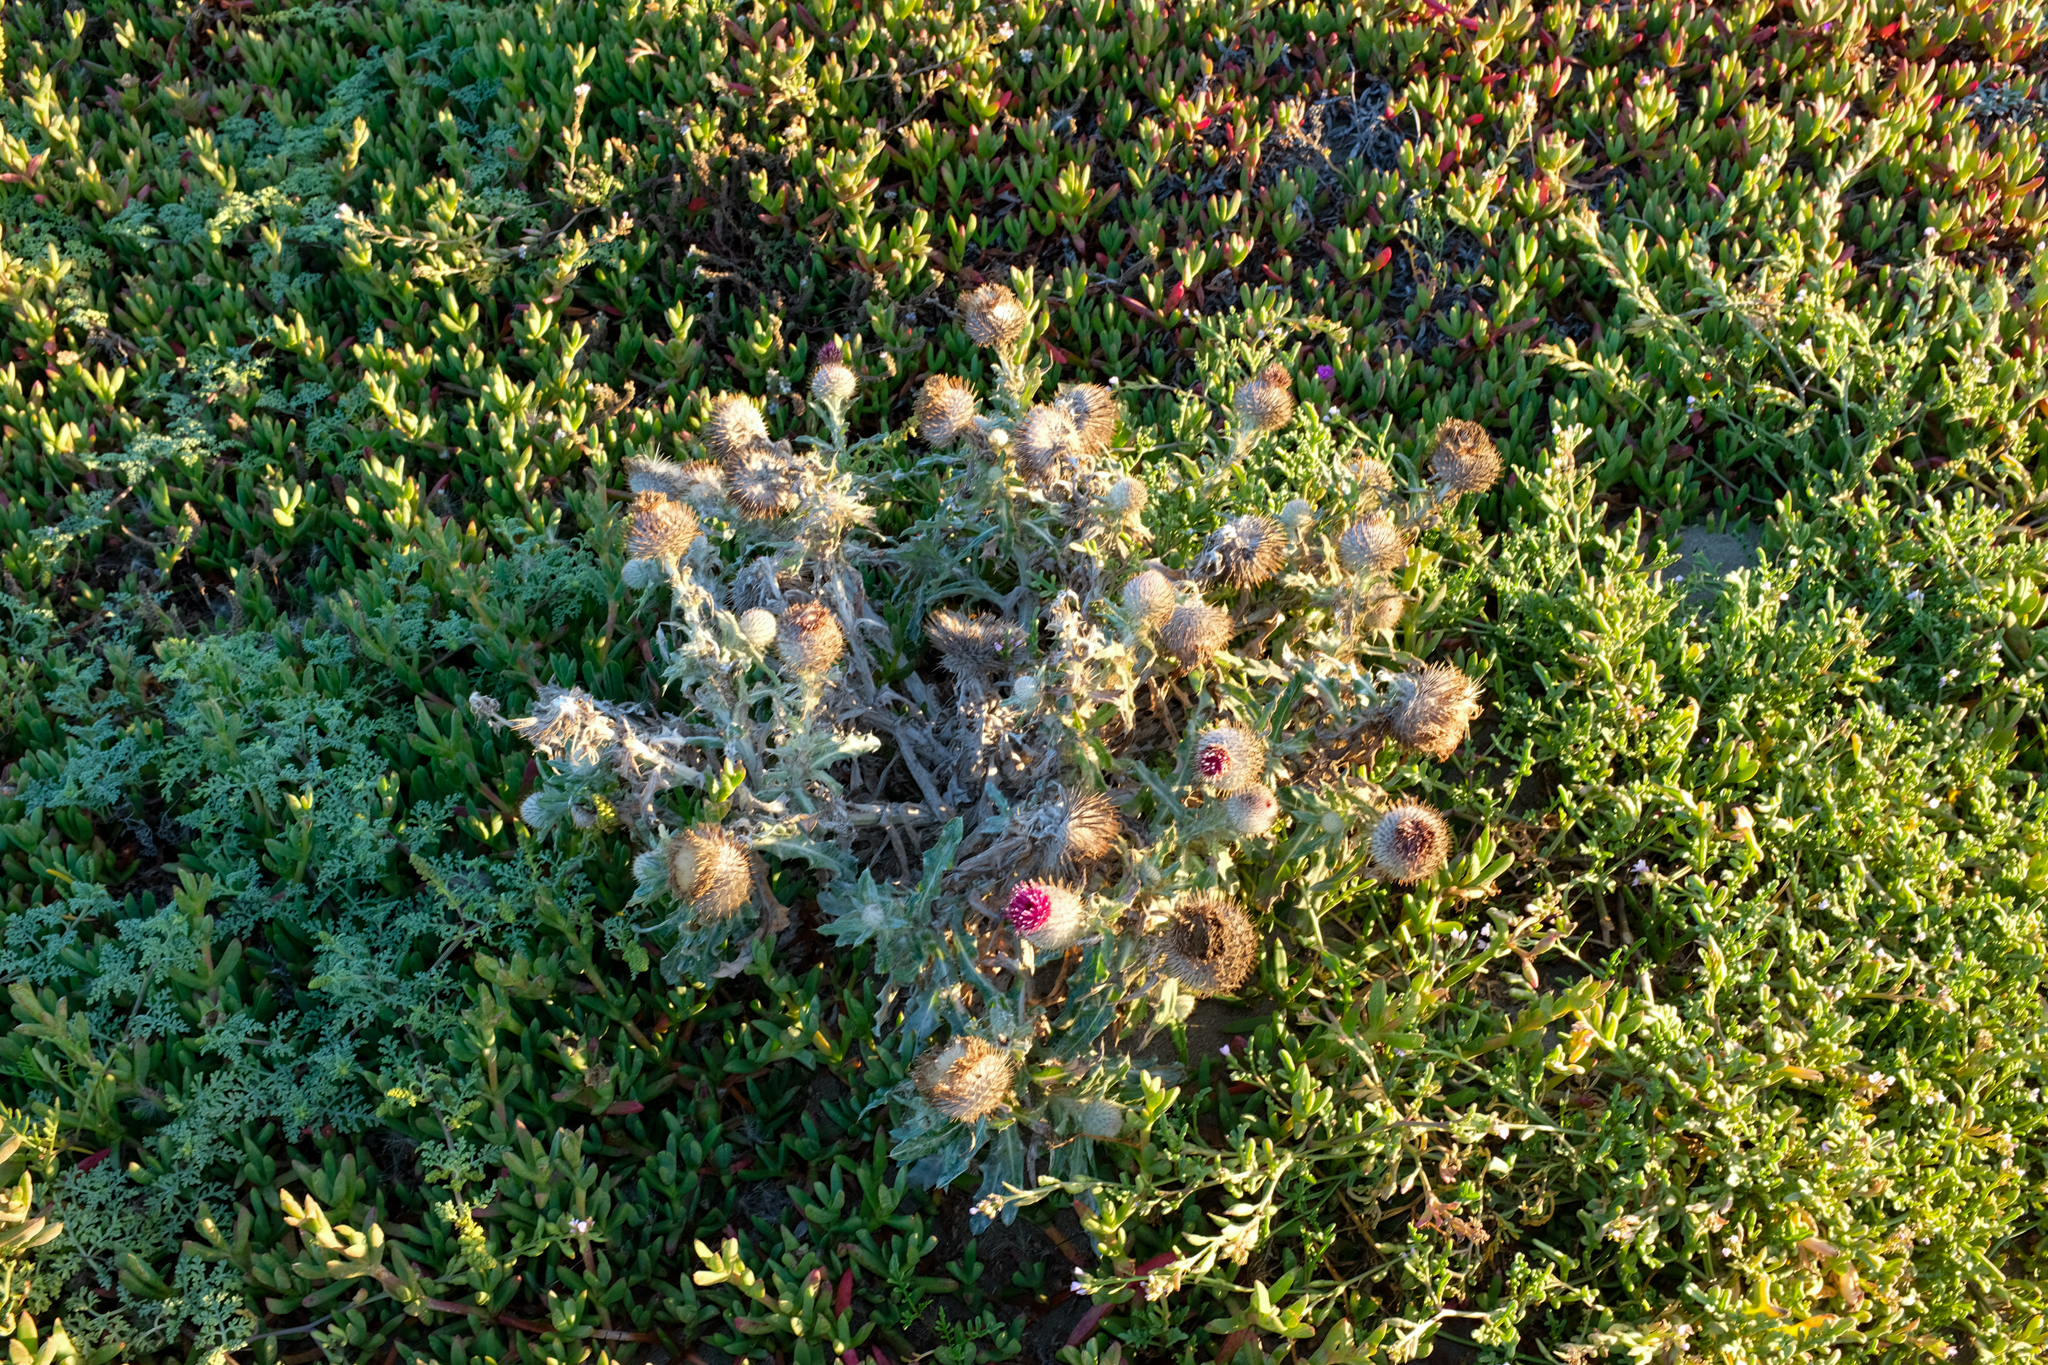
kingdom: Plantae
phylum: Tracheophyta
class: Magnoliopsida
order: Asterales
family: Asteraceae
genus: Cirsium
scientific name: Cirsium occidentale
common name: Western thistle
